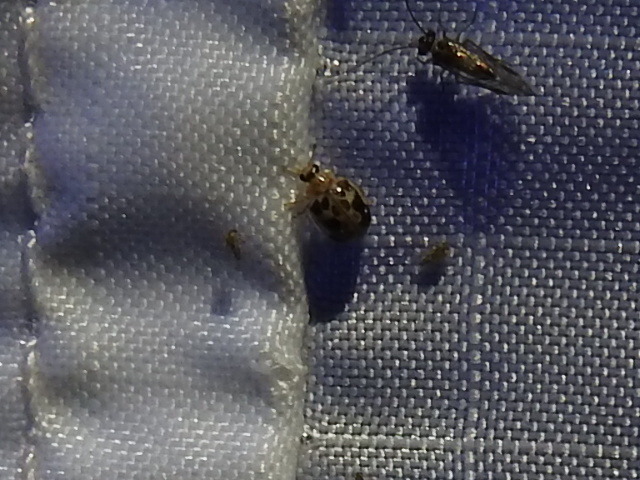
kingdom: Animalia
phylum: Arthropoda
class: Insecta
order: Coleoptera
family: Coccinellidae
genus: Psyllobora
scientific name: Psyllobora renifer
